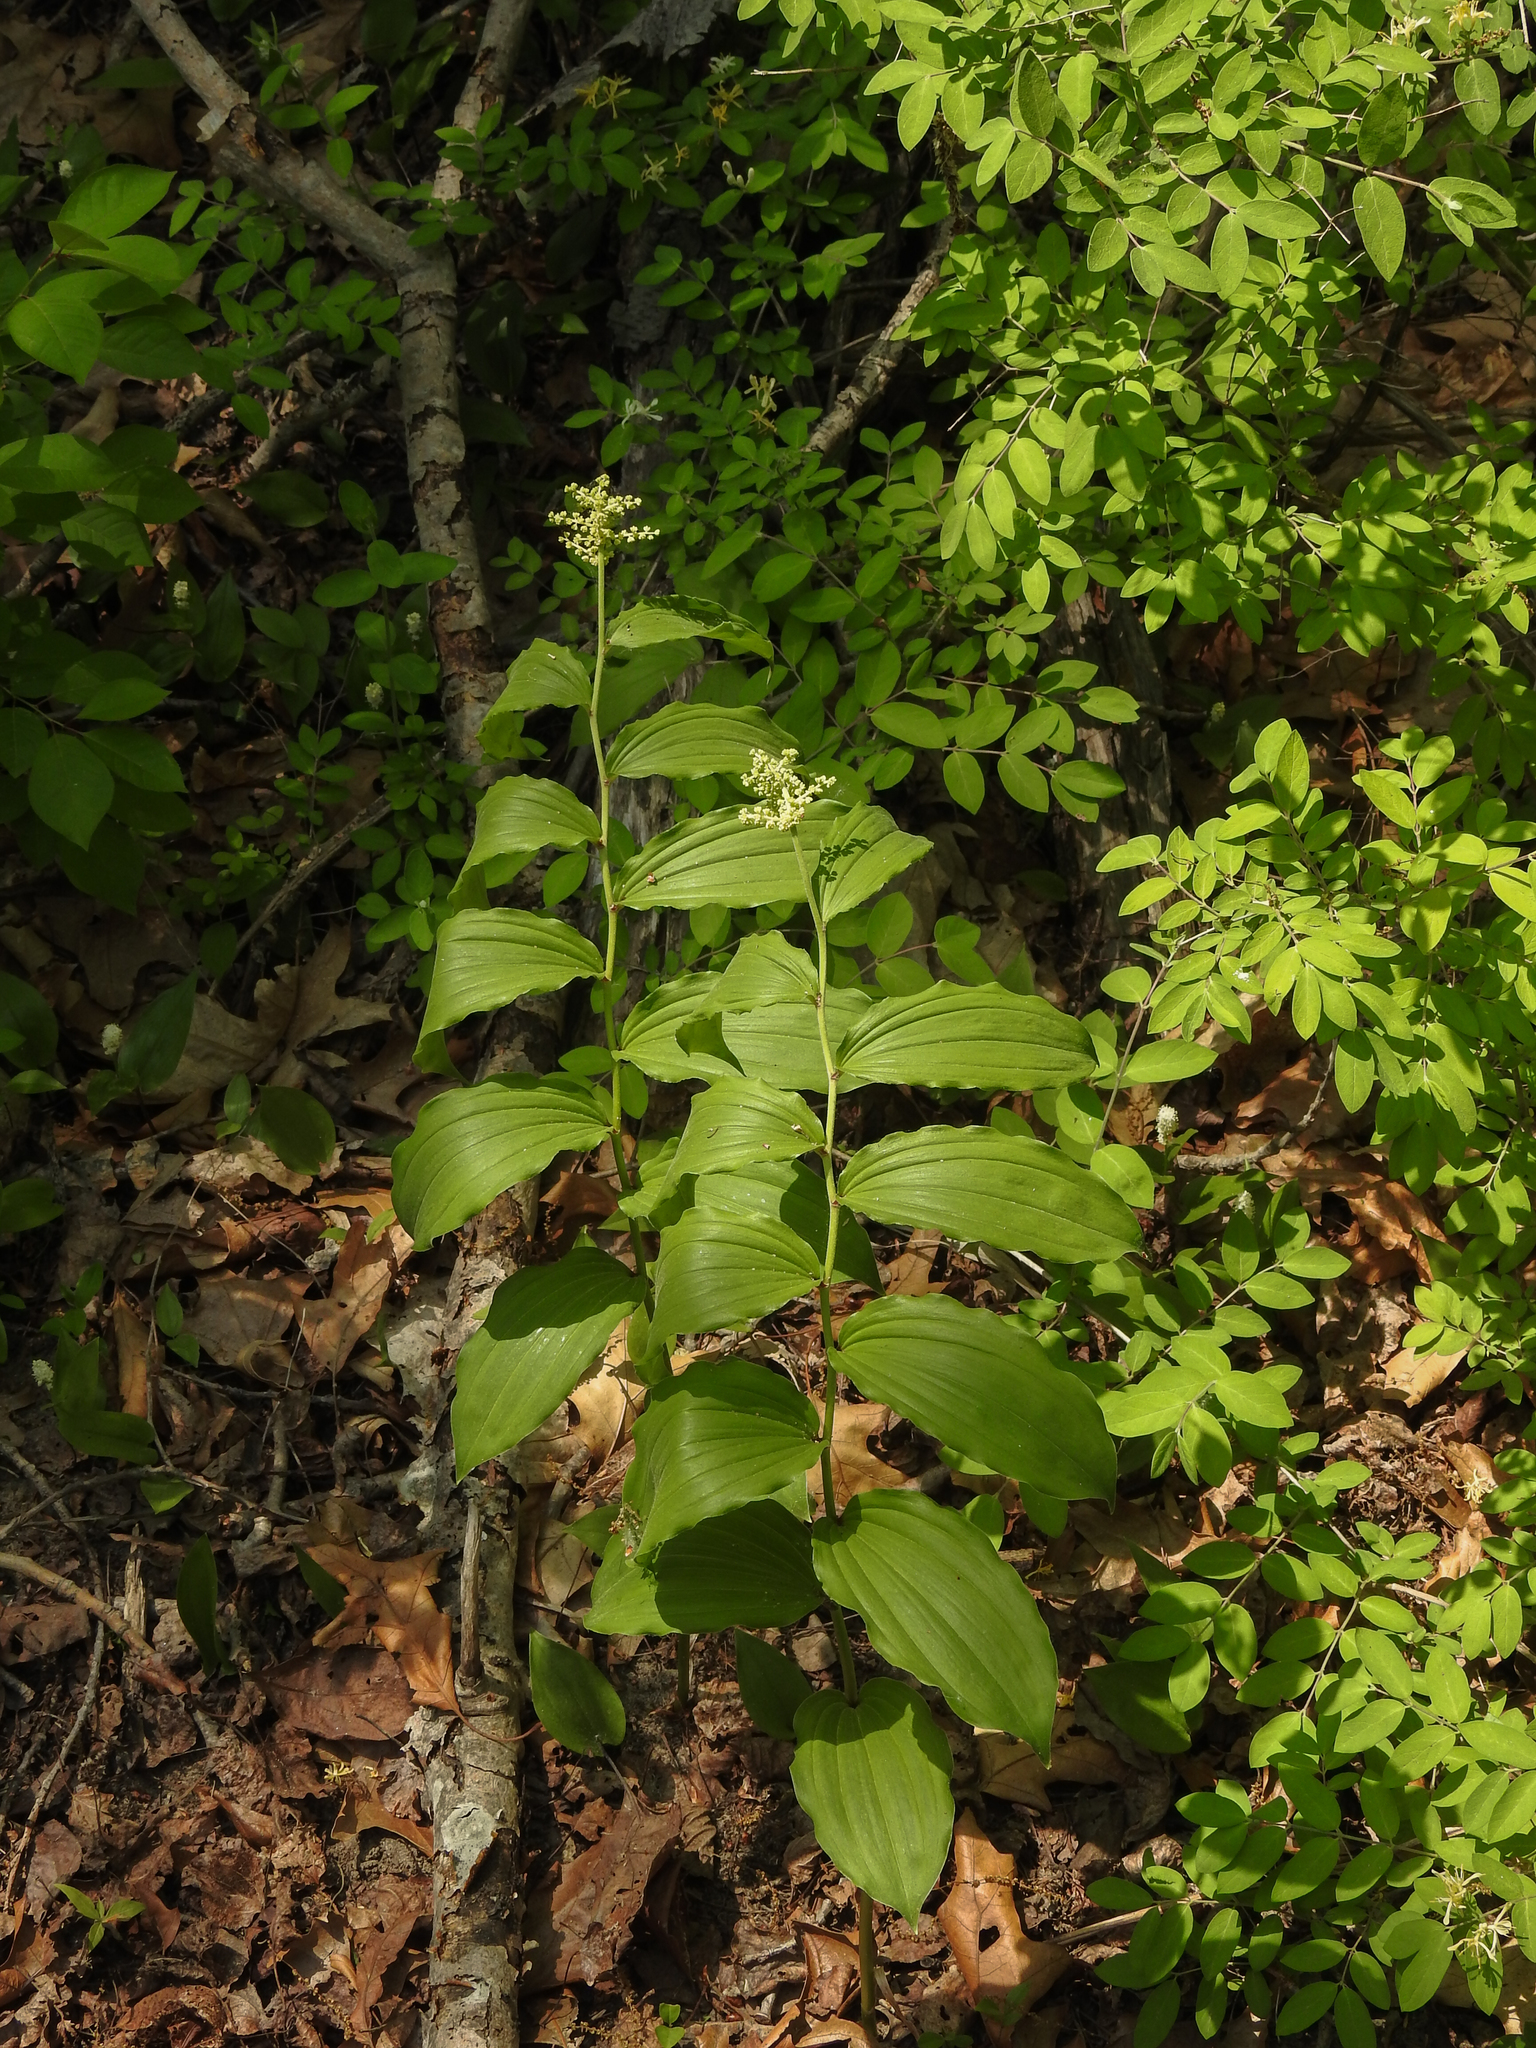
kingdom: Plantae
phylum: Tracheophyta
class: Liliopsida
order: Asparagales
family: Asparagaceae
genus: Maianthemum
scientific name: Maianthemum racemosum
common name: False spikenard
